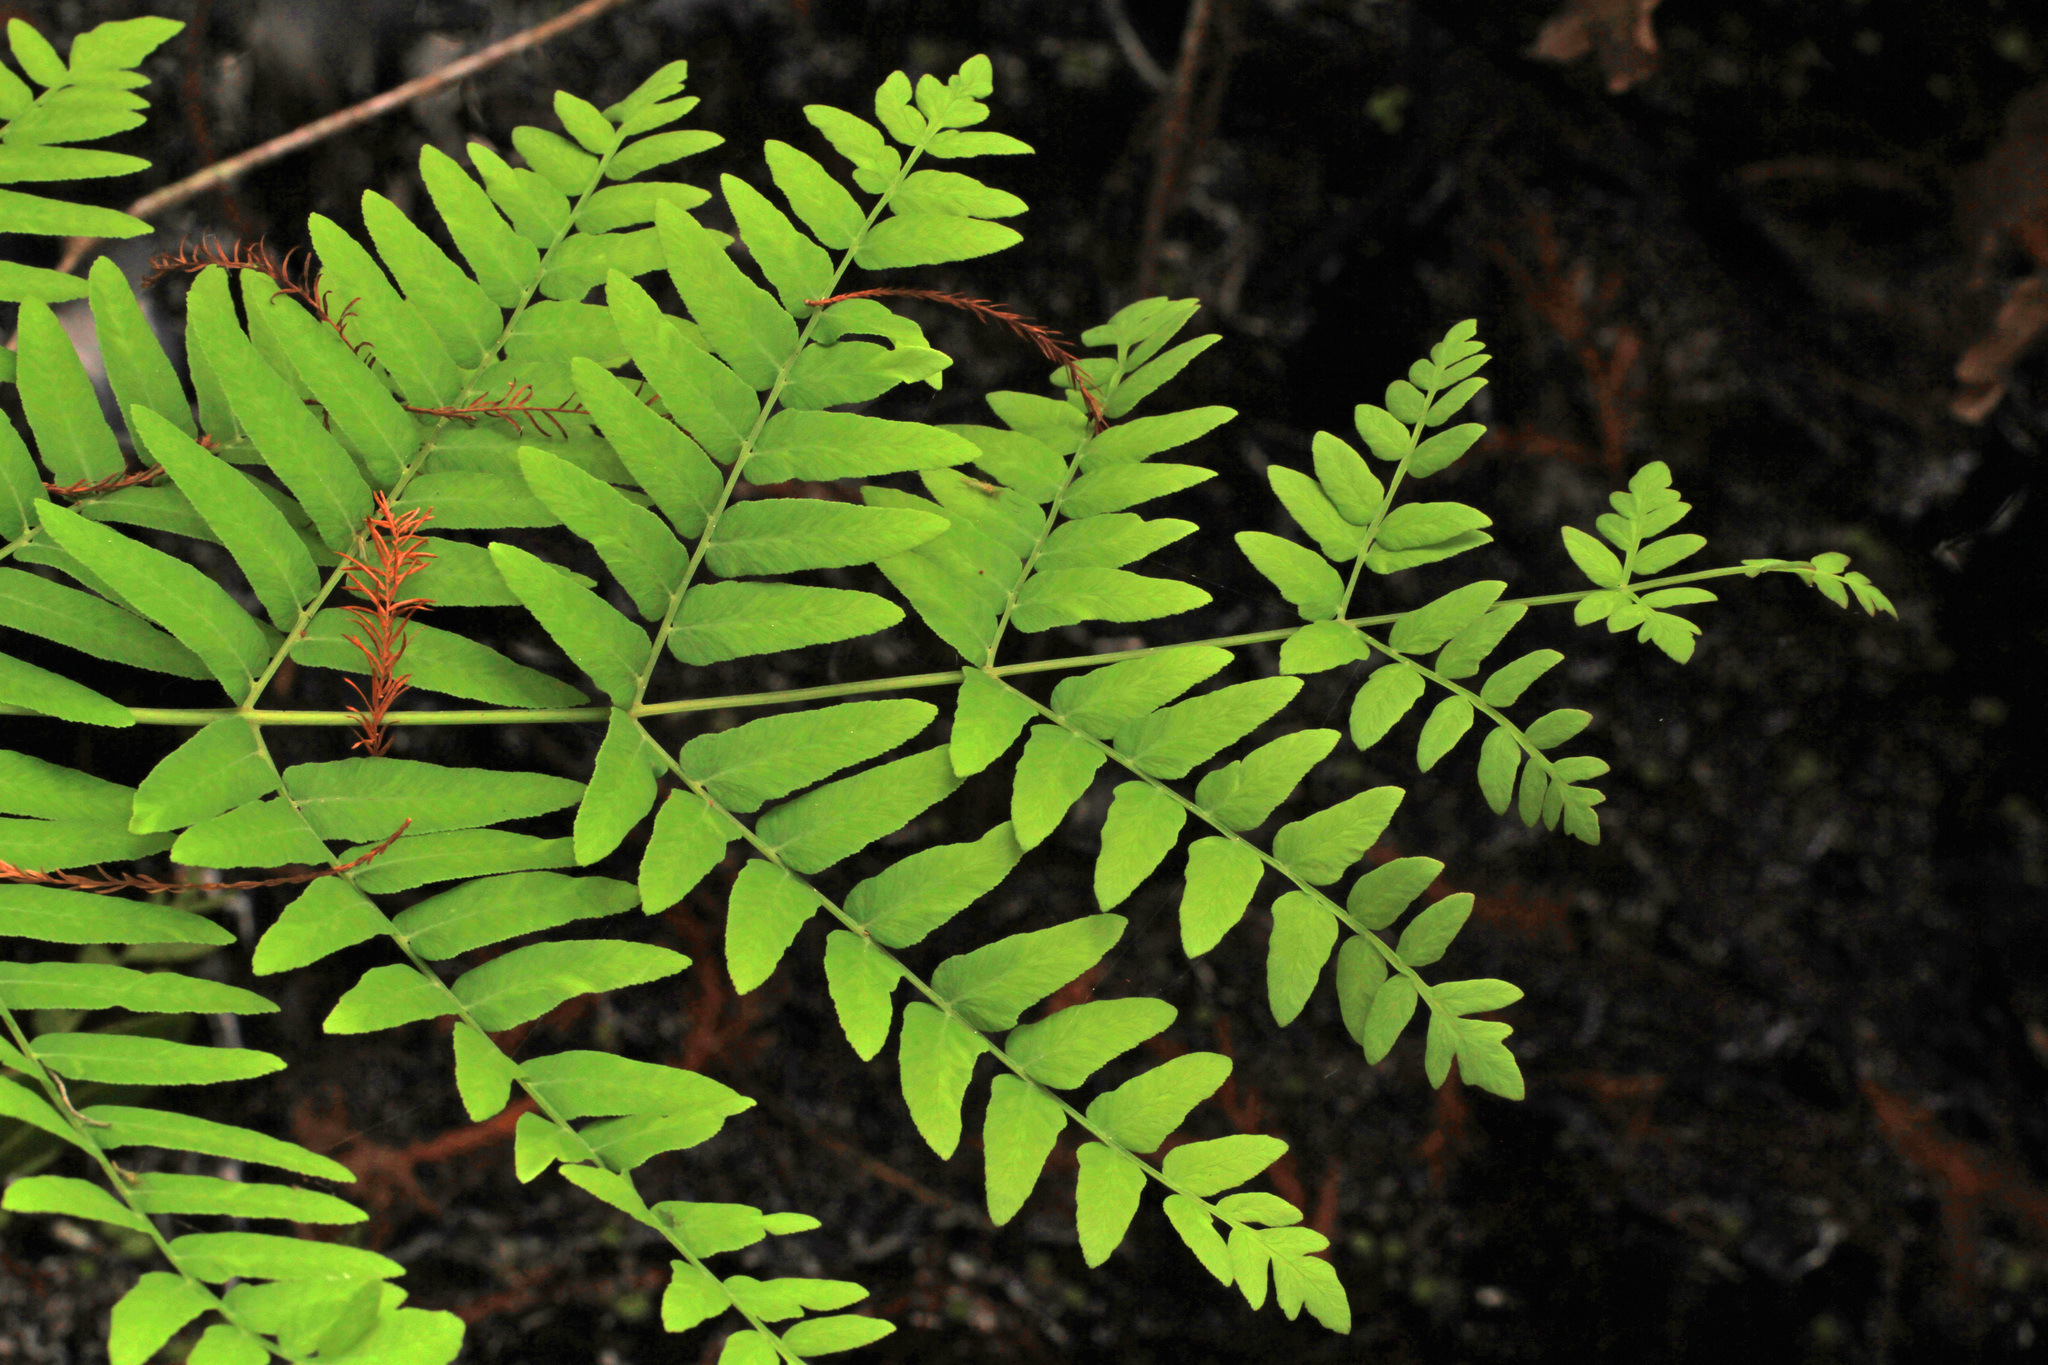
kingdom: Plantae
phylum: Tracheophyta
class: Polypodiopsida
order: Osmundales
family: Osmundaceae
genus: Osmunda
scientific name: Osmunda spectabilis
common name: American royal fern
